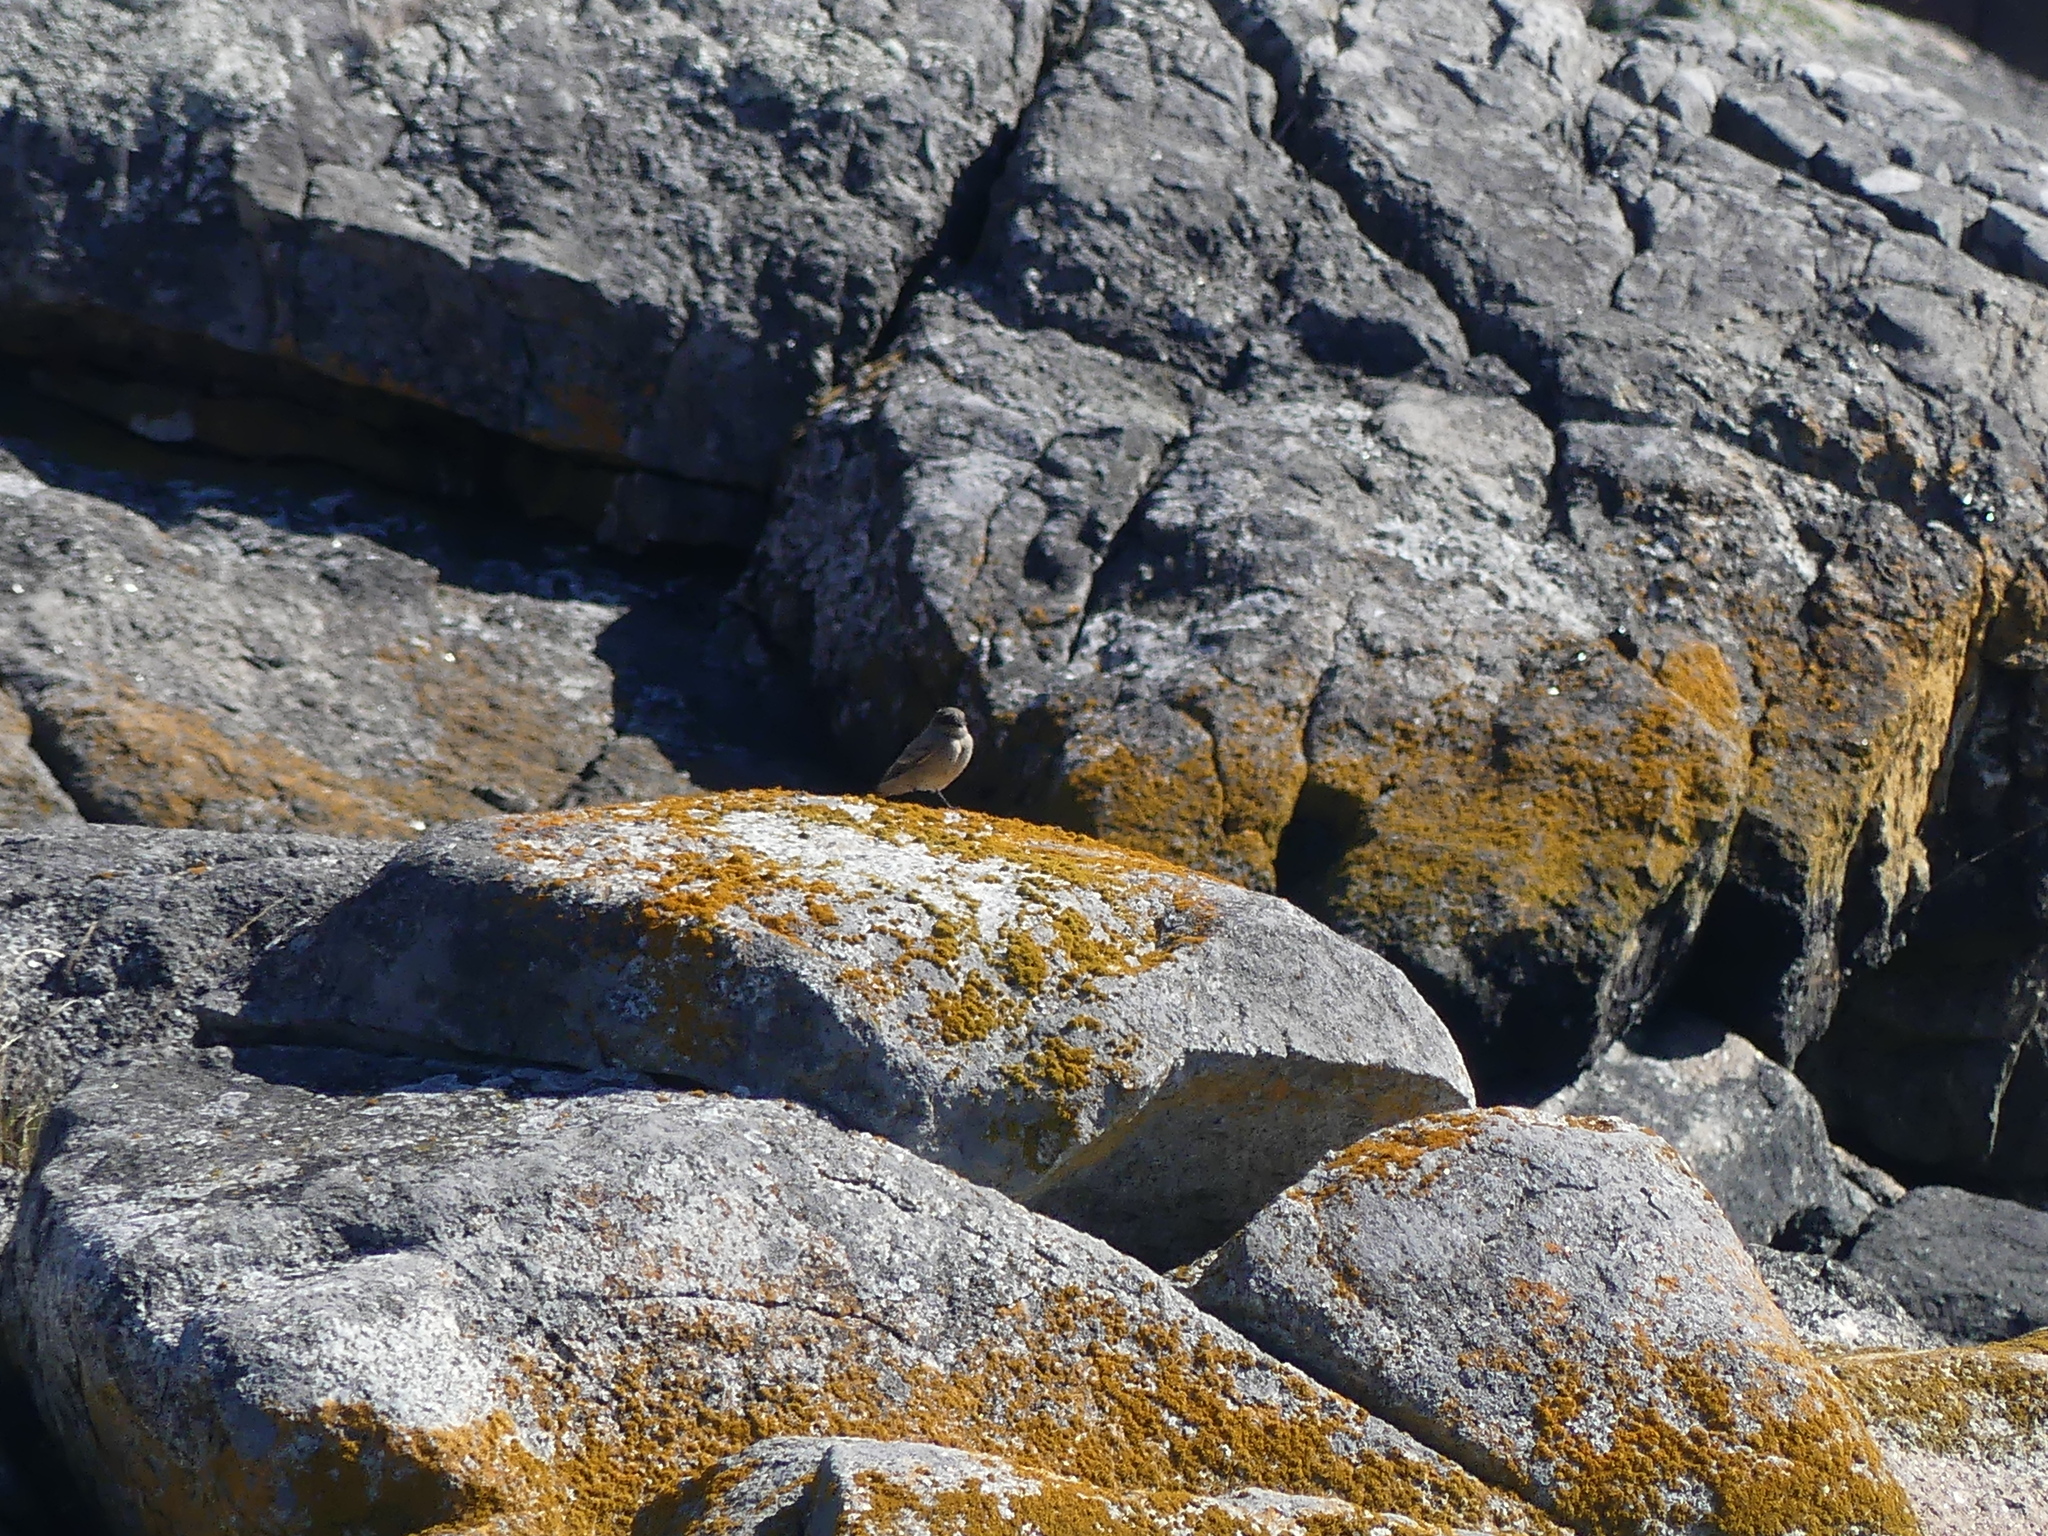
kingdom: Animalia
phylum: Chordata
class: Aves
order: Passeriformes
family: Tyrannidae
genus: Sayornis
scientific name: Sayornis saya
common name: Say's phoebe
